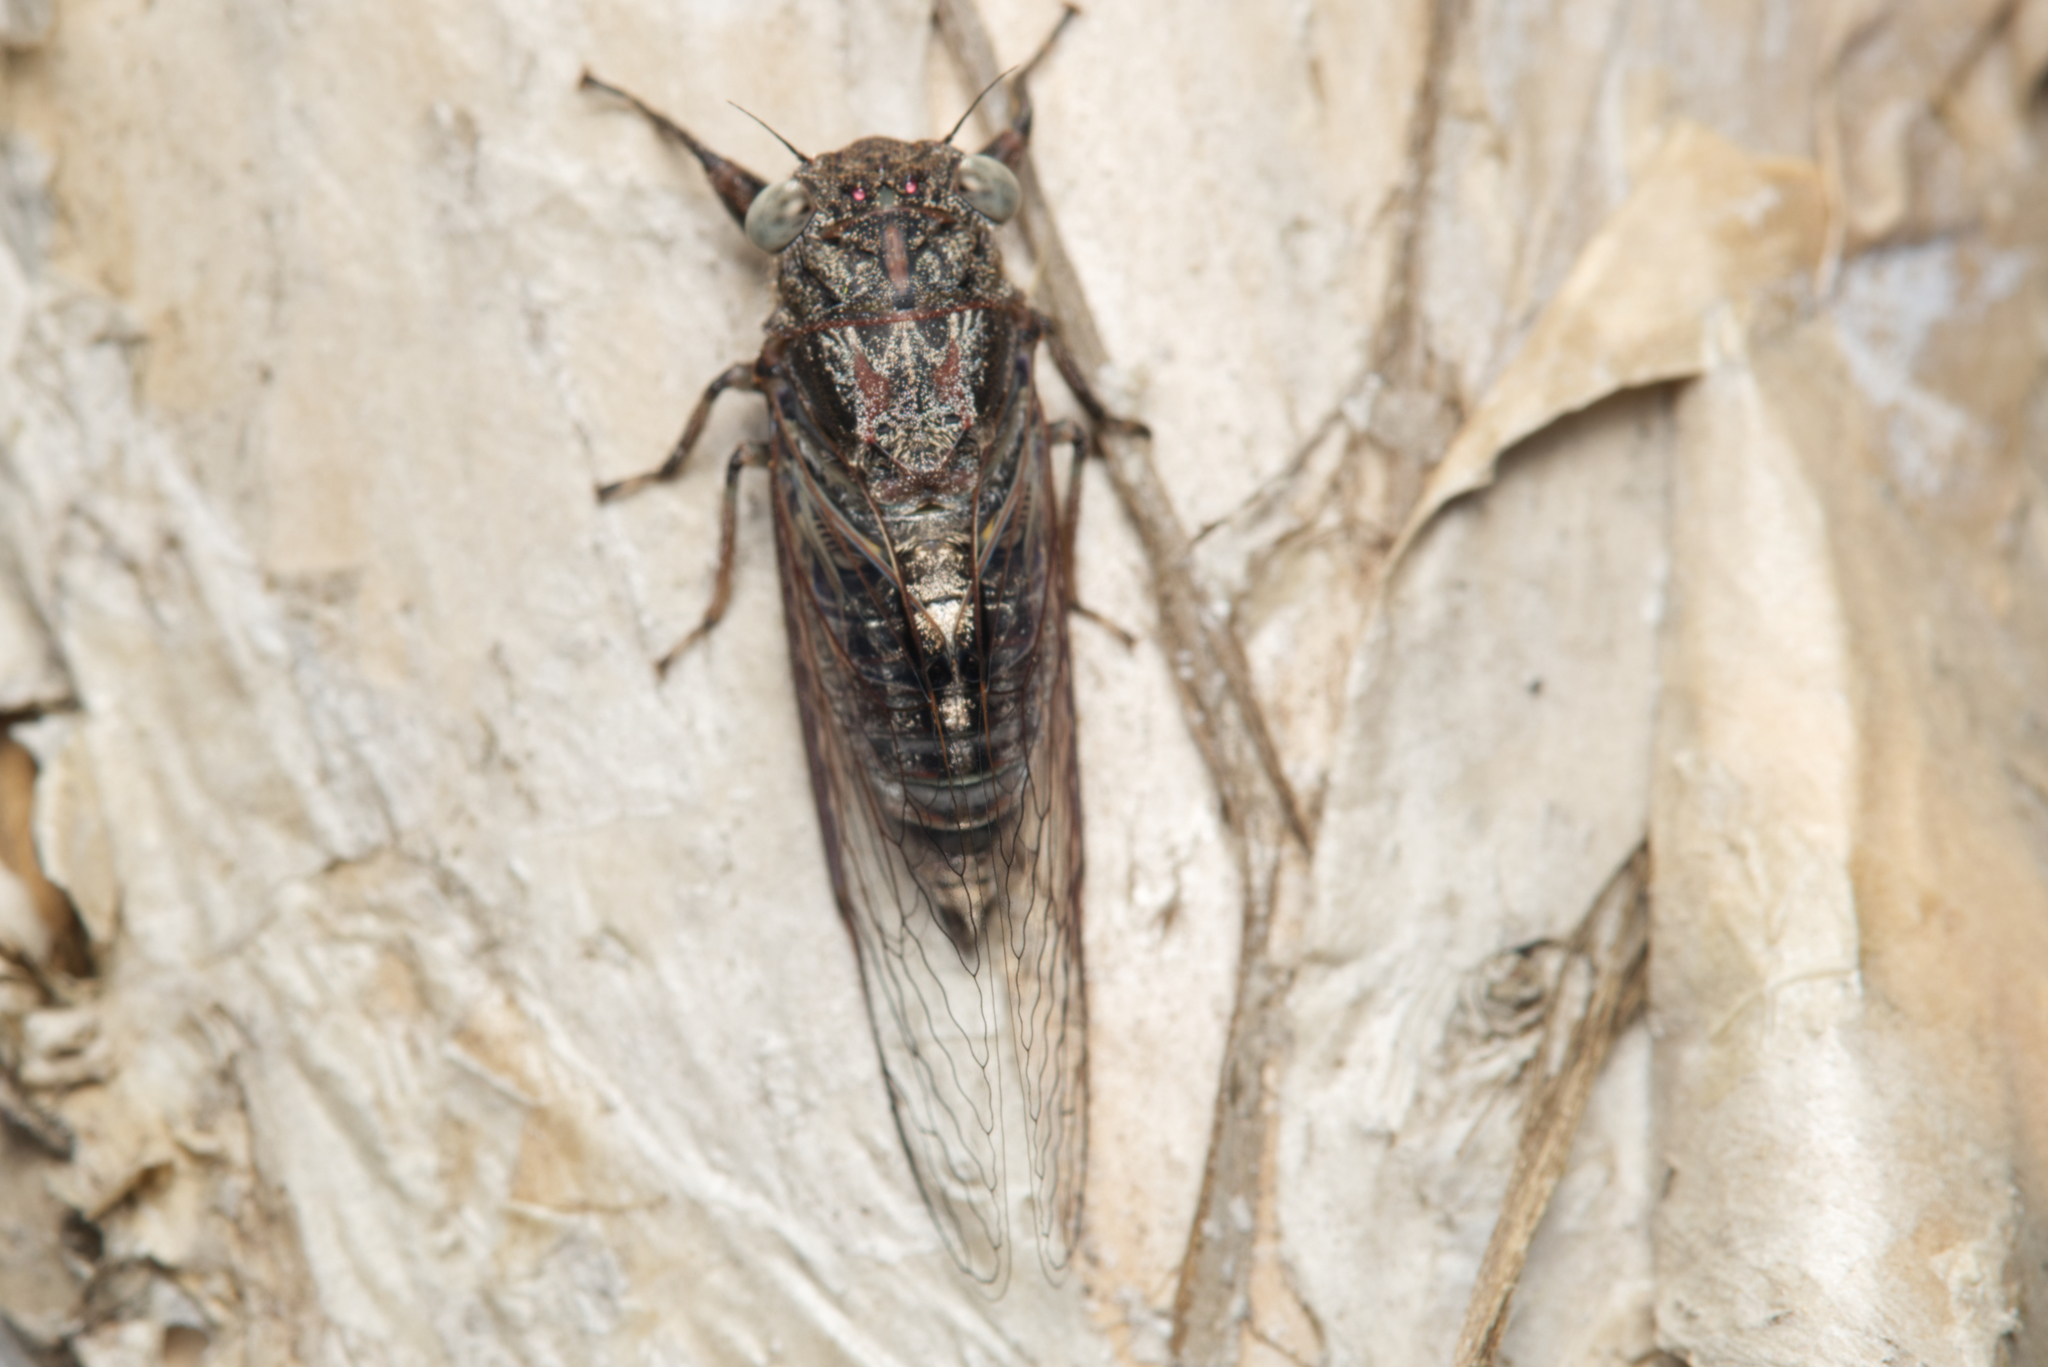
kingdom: Animalia
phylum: Arthropoda
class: Insecta
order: Hemiptera
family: Cicadidae
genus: Atrapsalta
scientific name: Atrapsalta corticina
